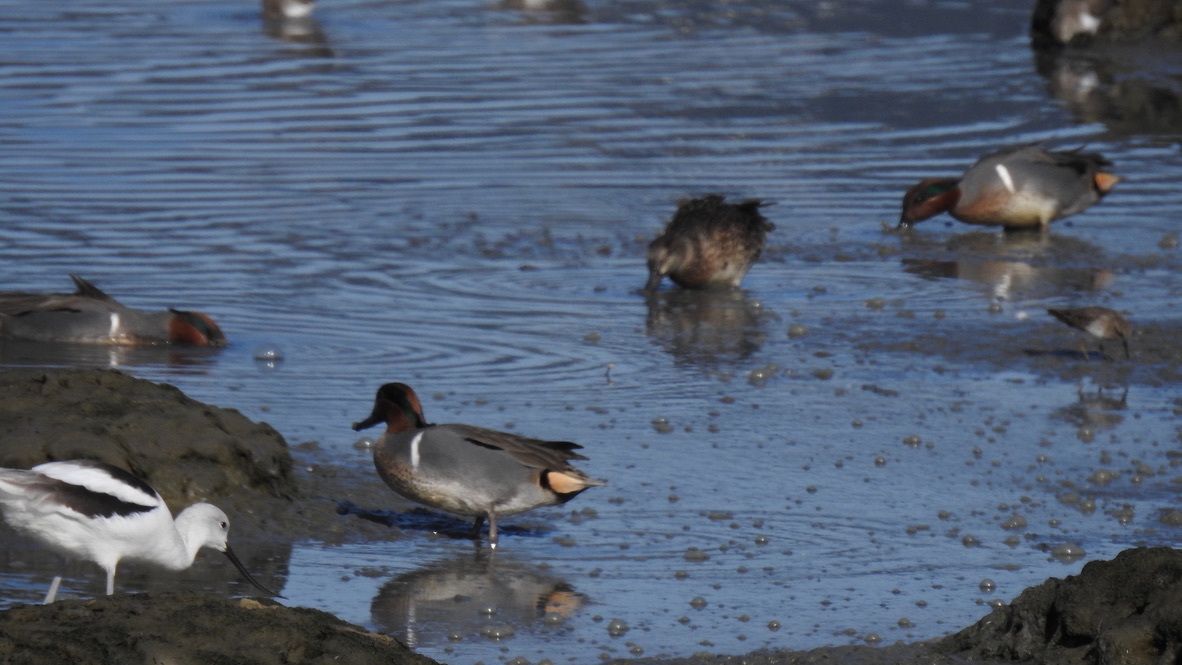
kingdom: Animalia
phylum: Chordata
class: Aves
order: Anseriformes
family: Anatidae
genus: Anas
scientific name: Anas crecca
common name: Eurasian teal
